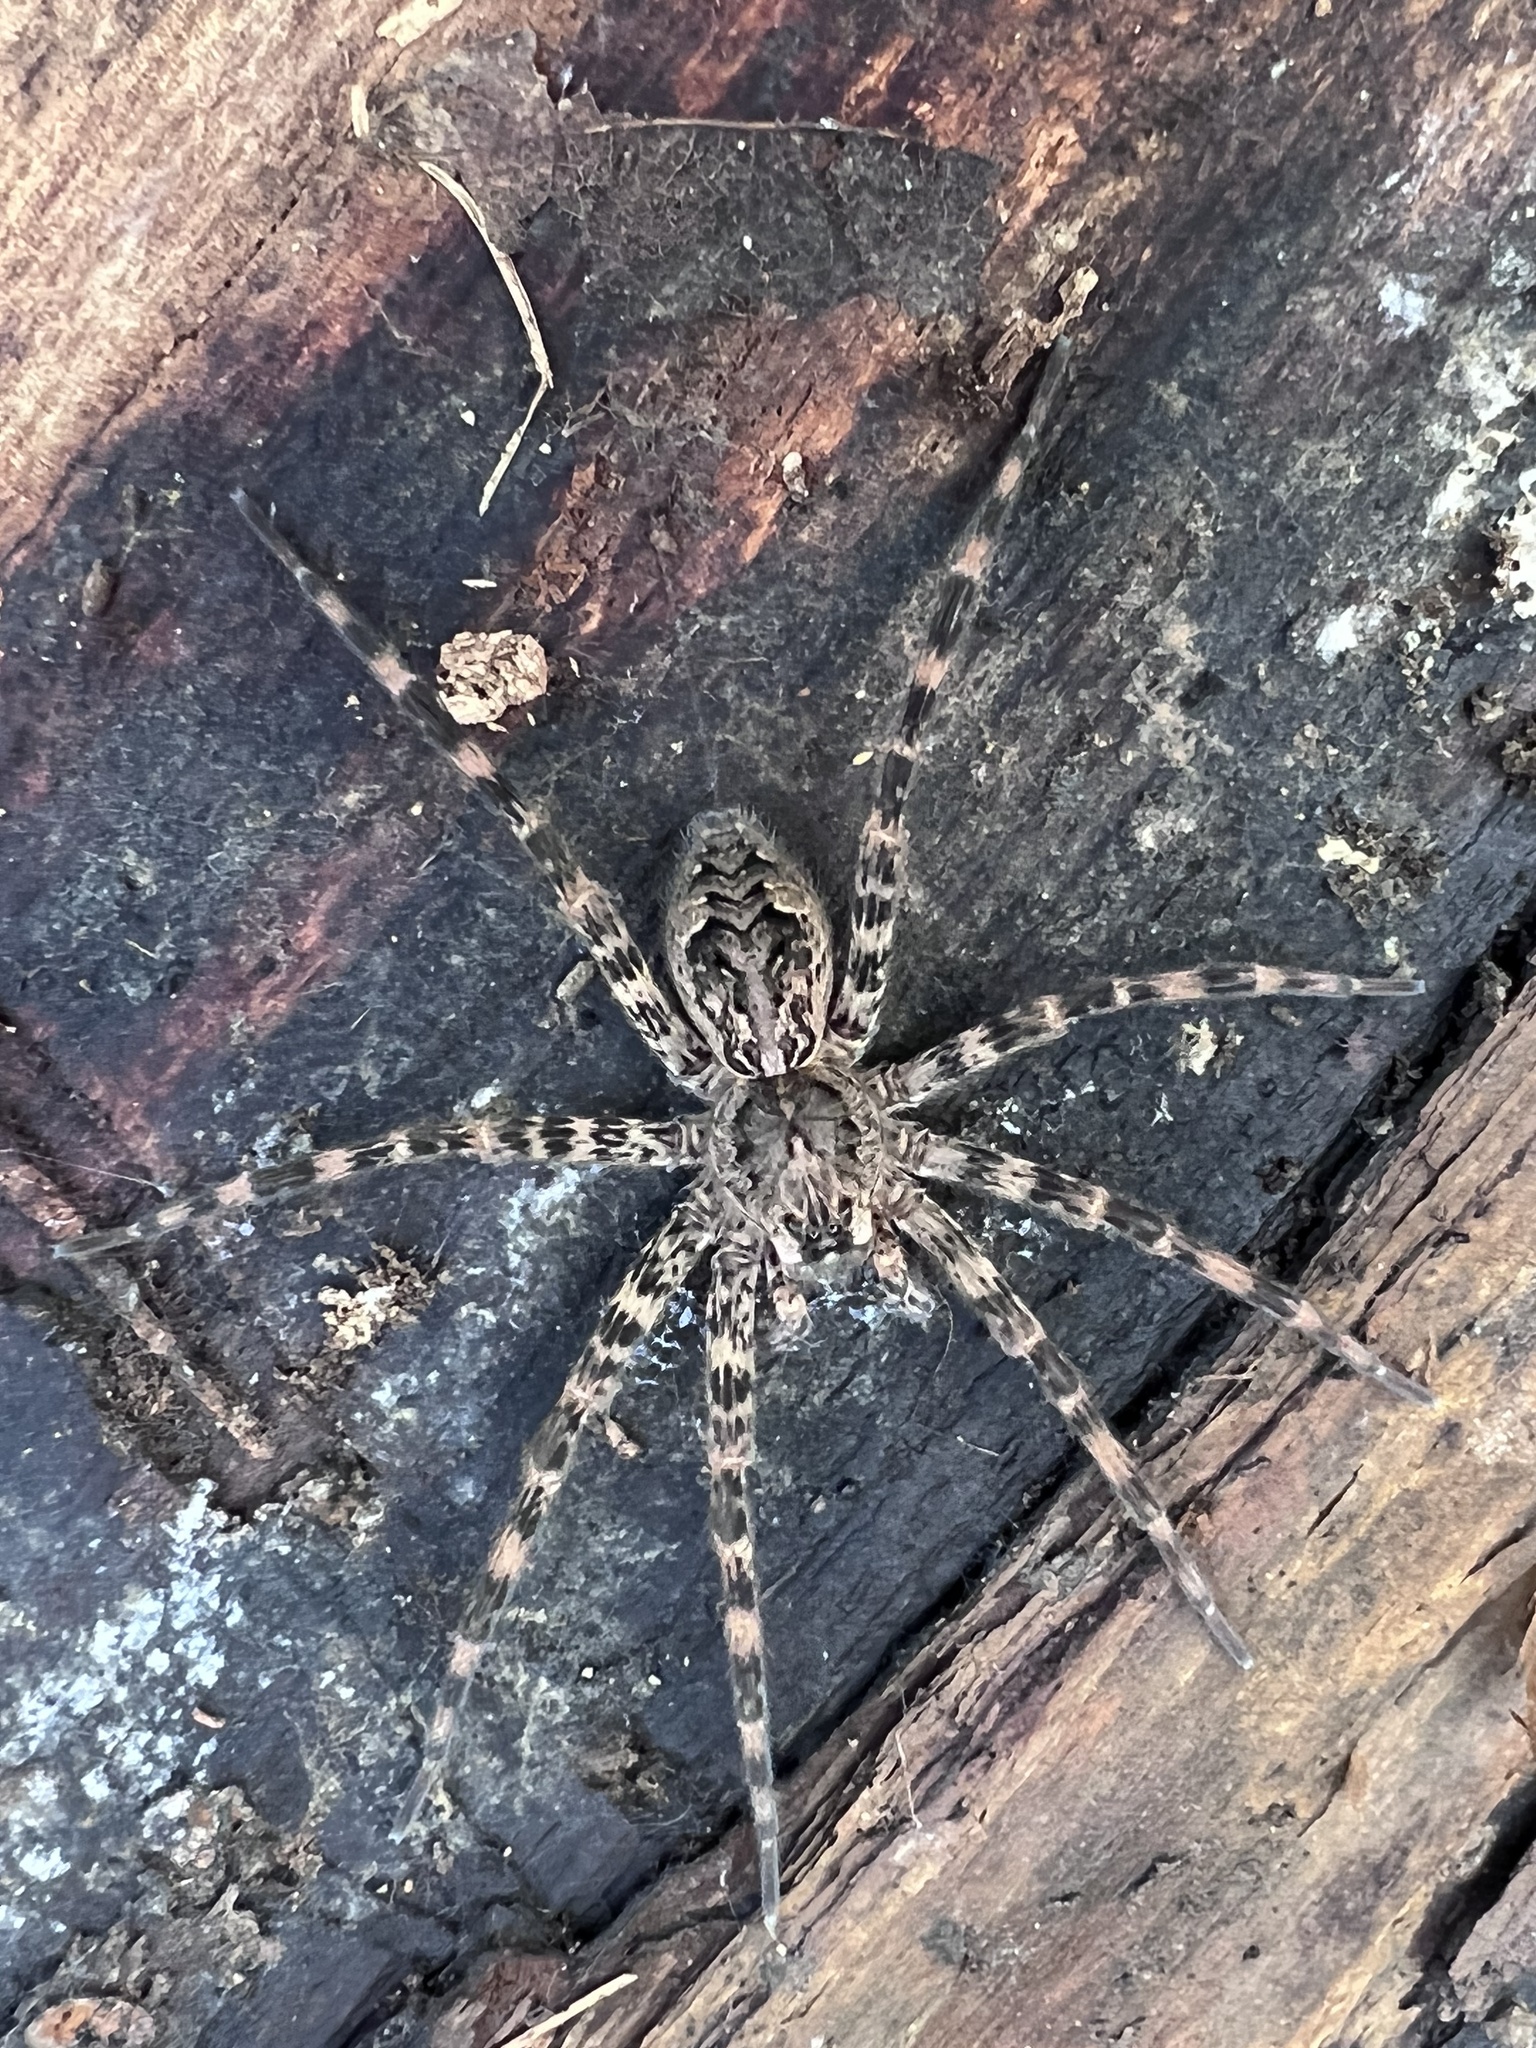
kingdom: Animalia
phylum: Arthropoda
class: Arachnida
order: Araneae
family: Pisauridae
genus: Dolomedes
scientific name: Dolomedes tenebrosus
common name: Dark fishing spider
